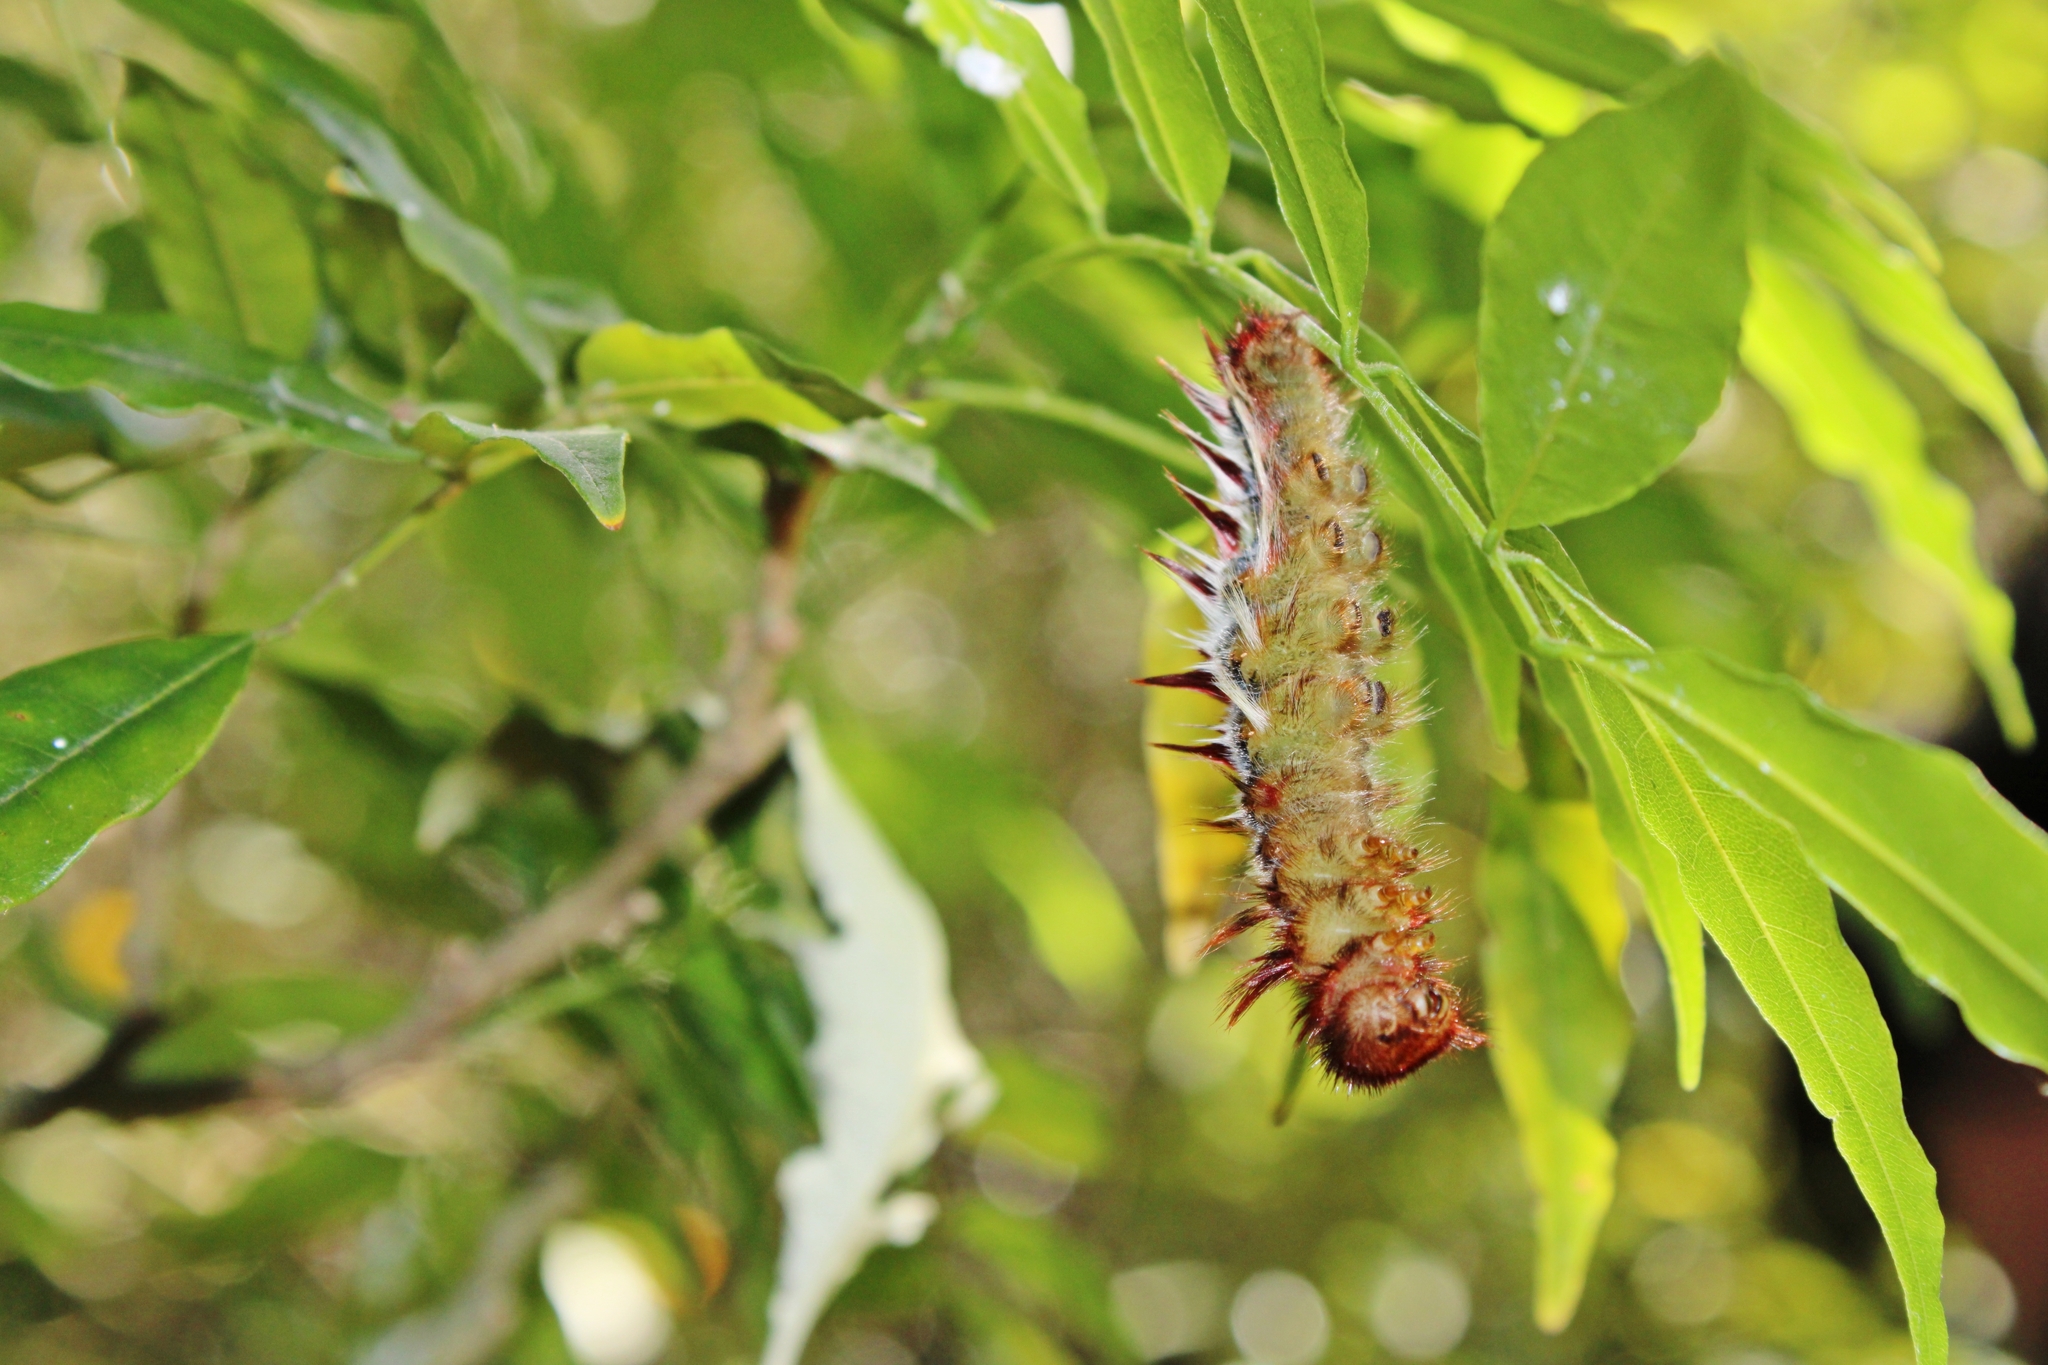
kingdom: Animalia
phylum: Arthropoda
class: Insecta
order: Lepidoptera
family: Nymphalidae
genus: Morpho
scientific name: Morpho epistrophus
